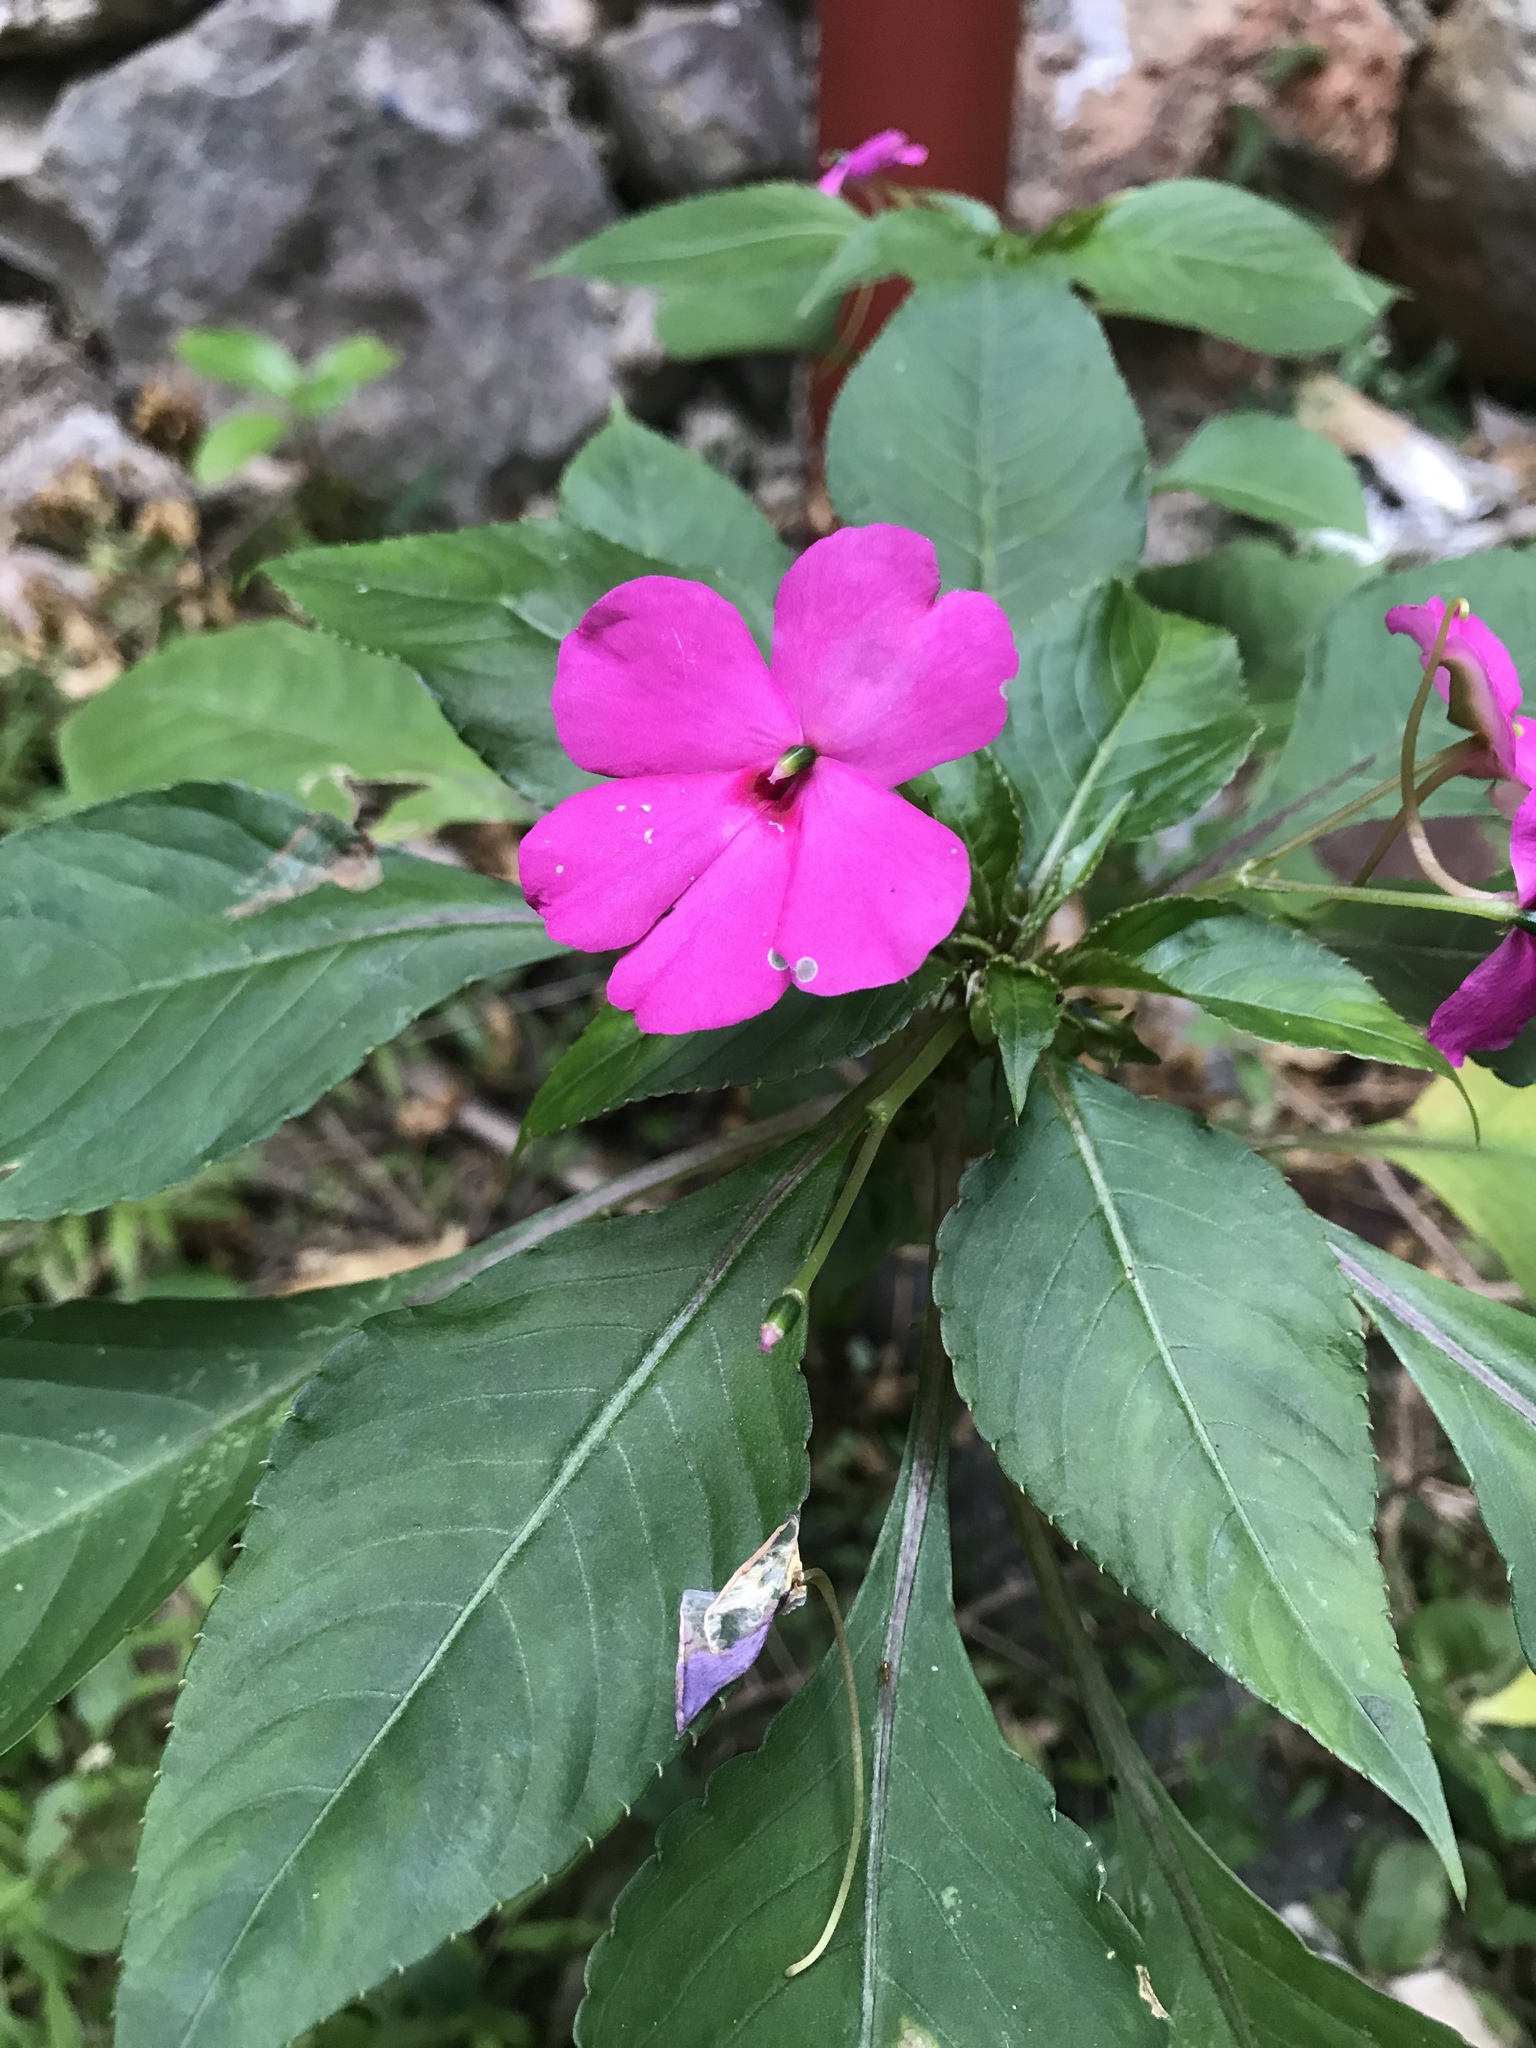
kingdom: Plantae
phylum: Tracheophyta
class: Magnoliopsida
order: Ericales
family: Balsaminaceae
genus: Impatiens
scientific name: Impatiens walleriana
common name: Buzzy lizzy
